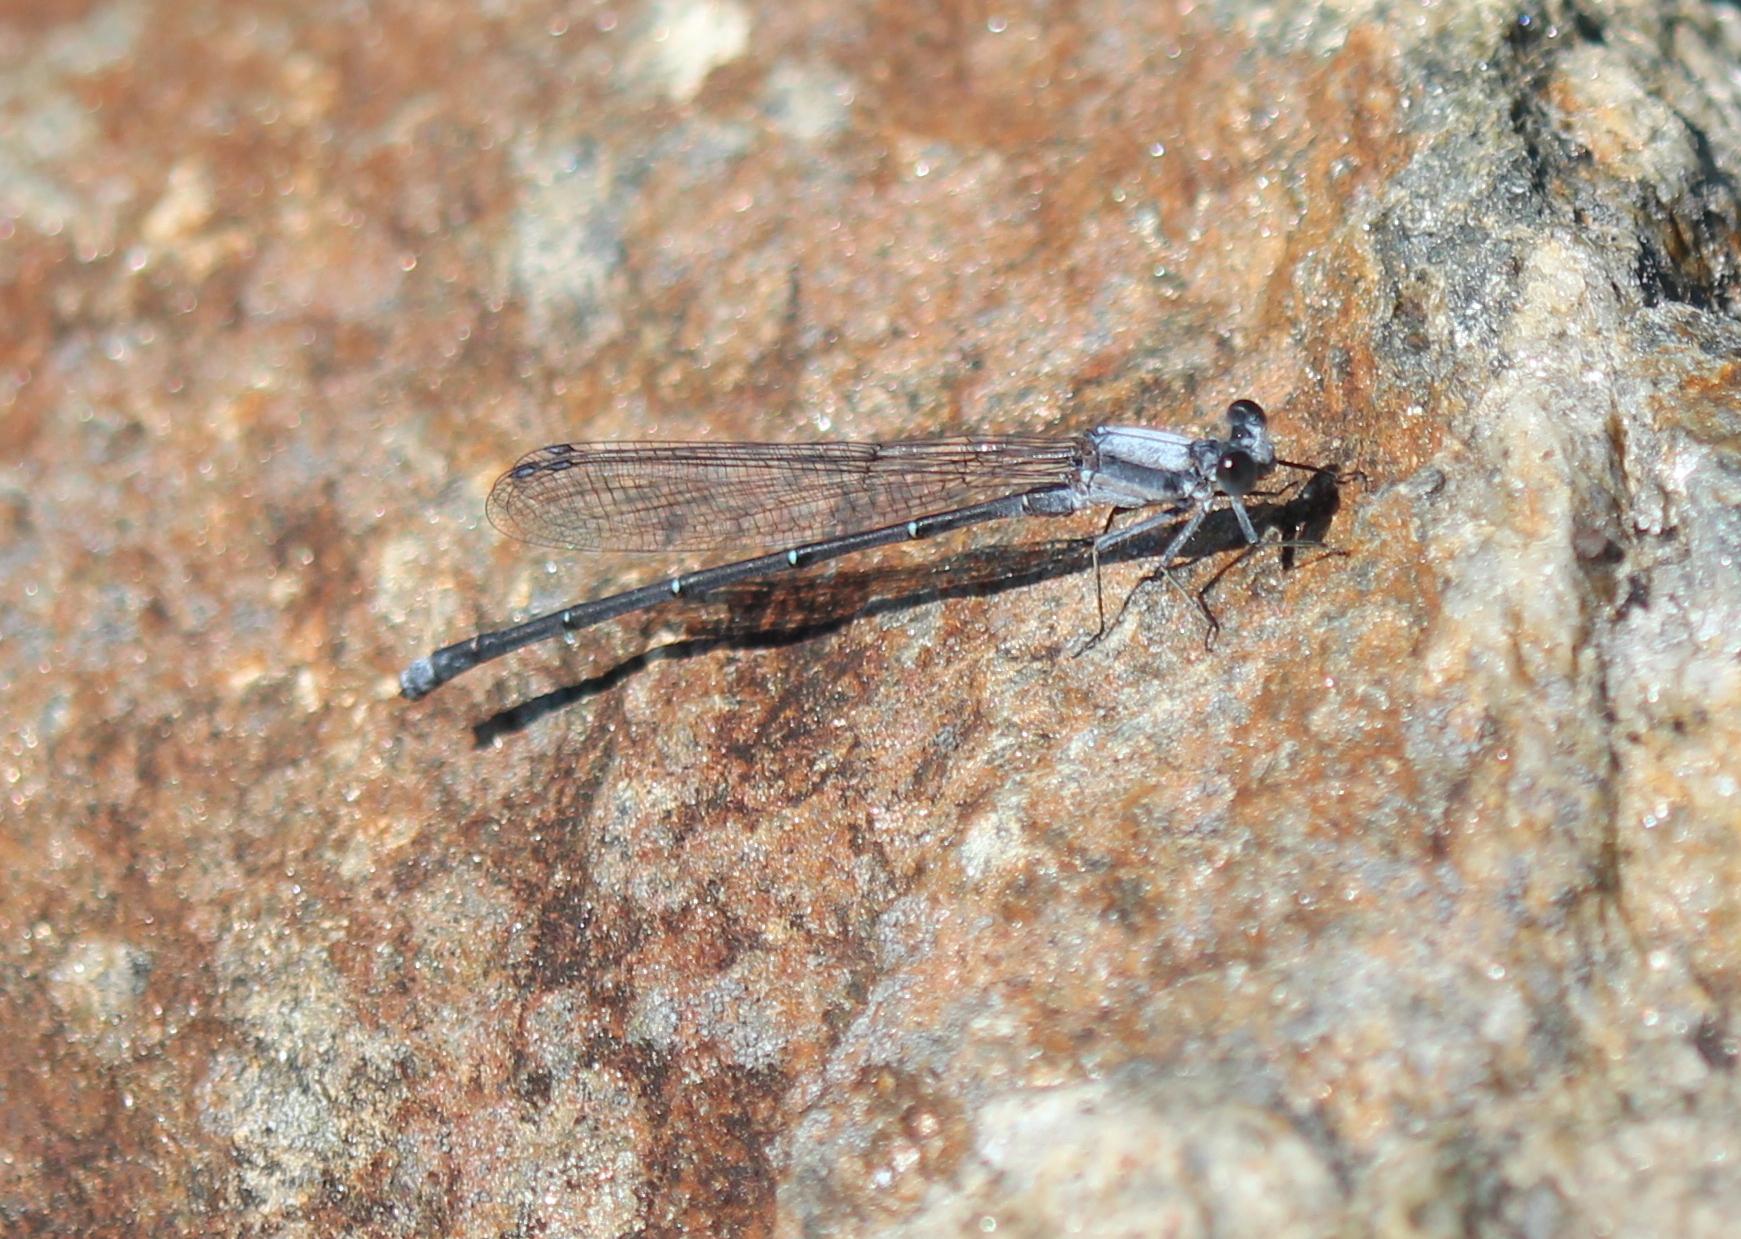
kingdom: Animalia
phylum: Arthropoda
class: Insecta
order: Odonata
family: Coenagrionidae
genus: Argia
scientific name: Argia moesta
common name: Powdered dancer
